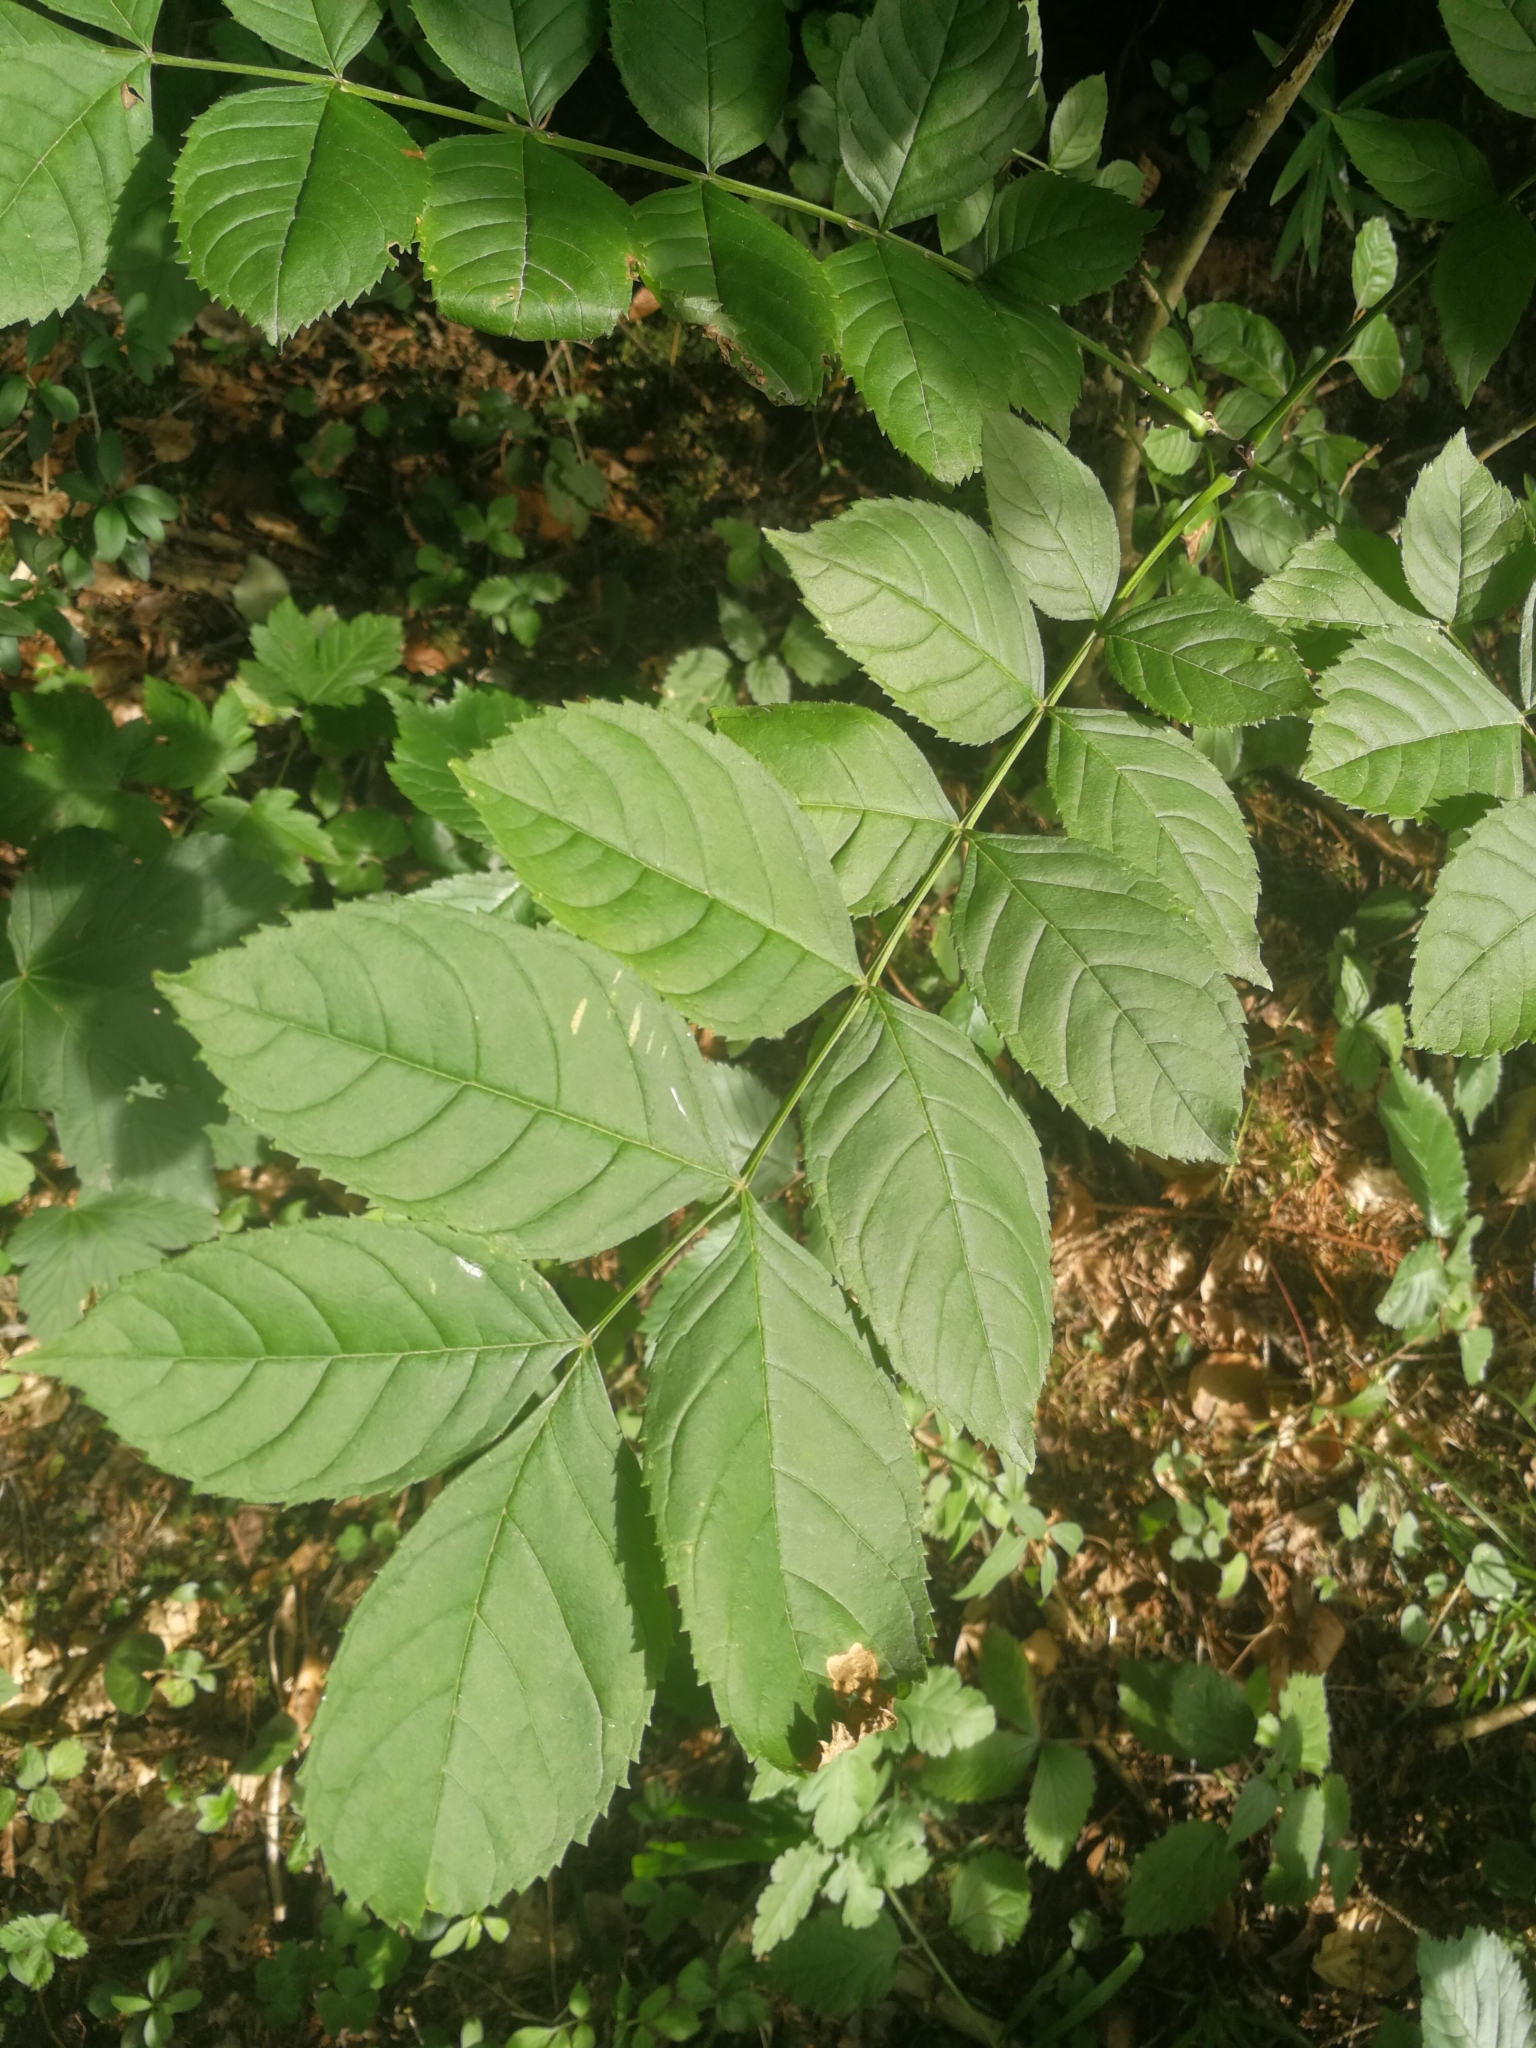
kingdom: Plantae
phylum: Tracheophyta
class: Magnoliopsida
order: Lamiales
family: Oleaceae
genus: Fraxinus
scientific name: Fraxinus excelsior
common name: European ash
